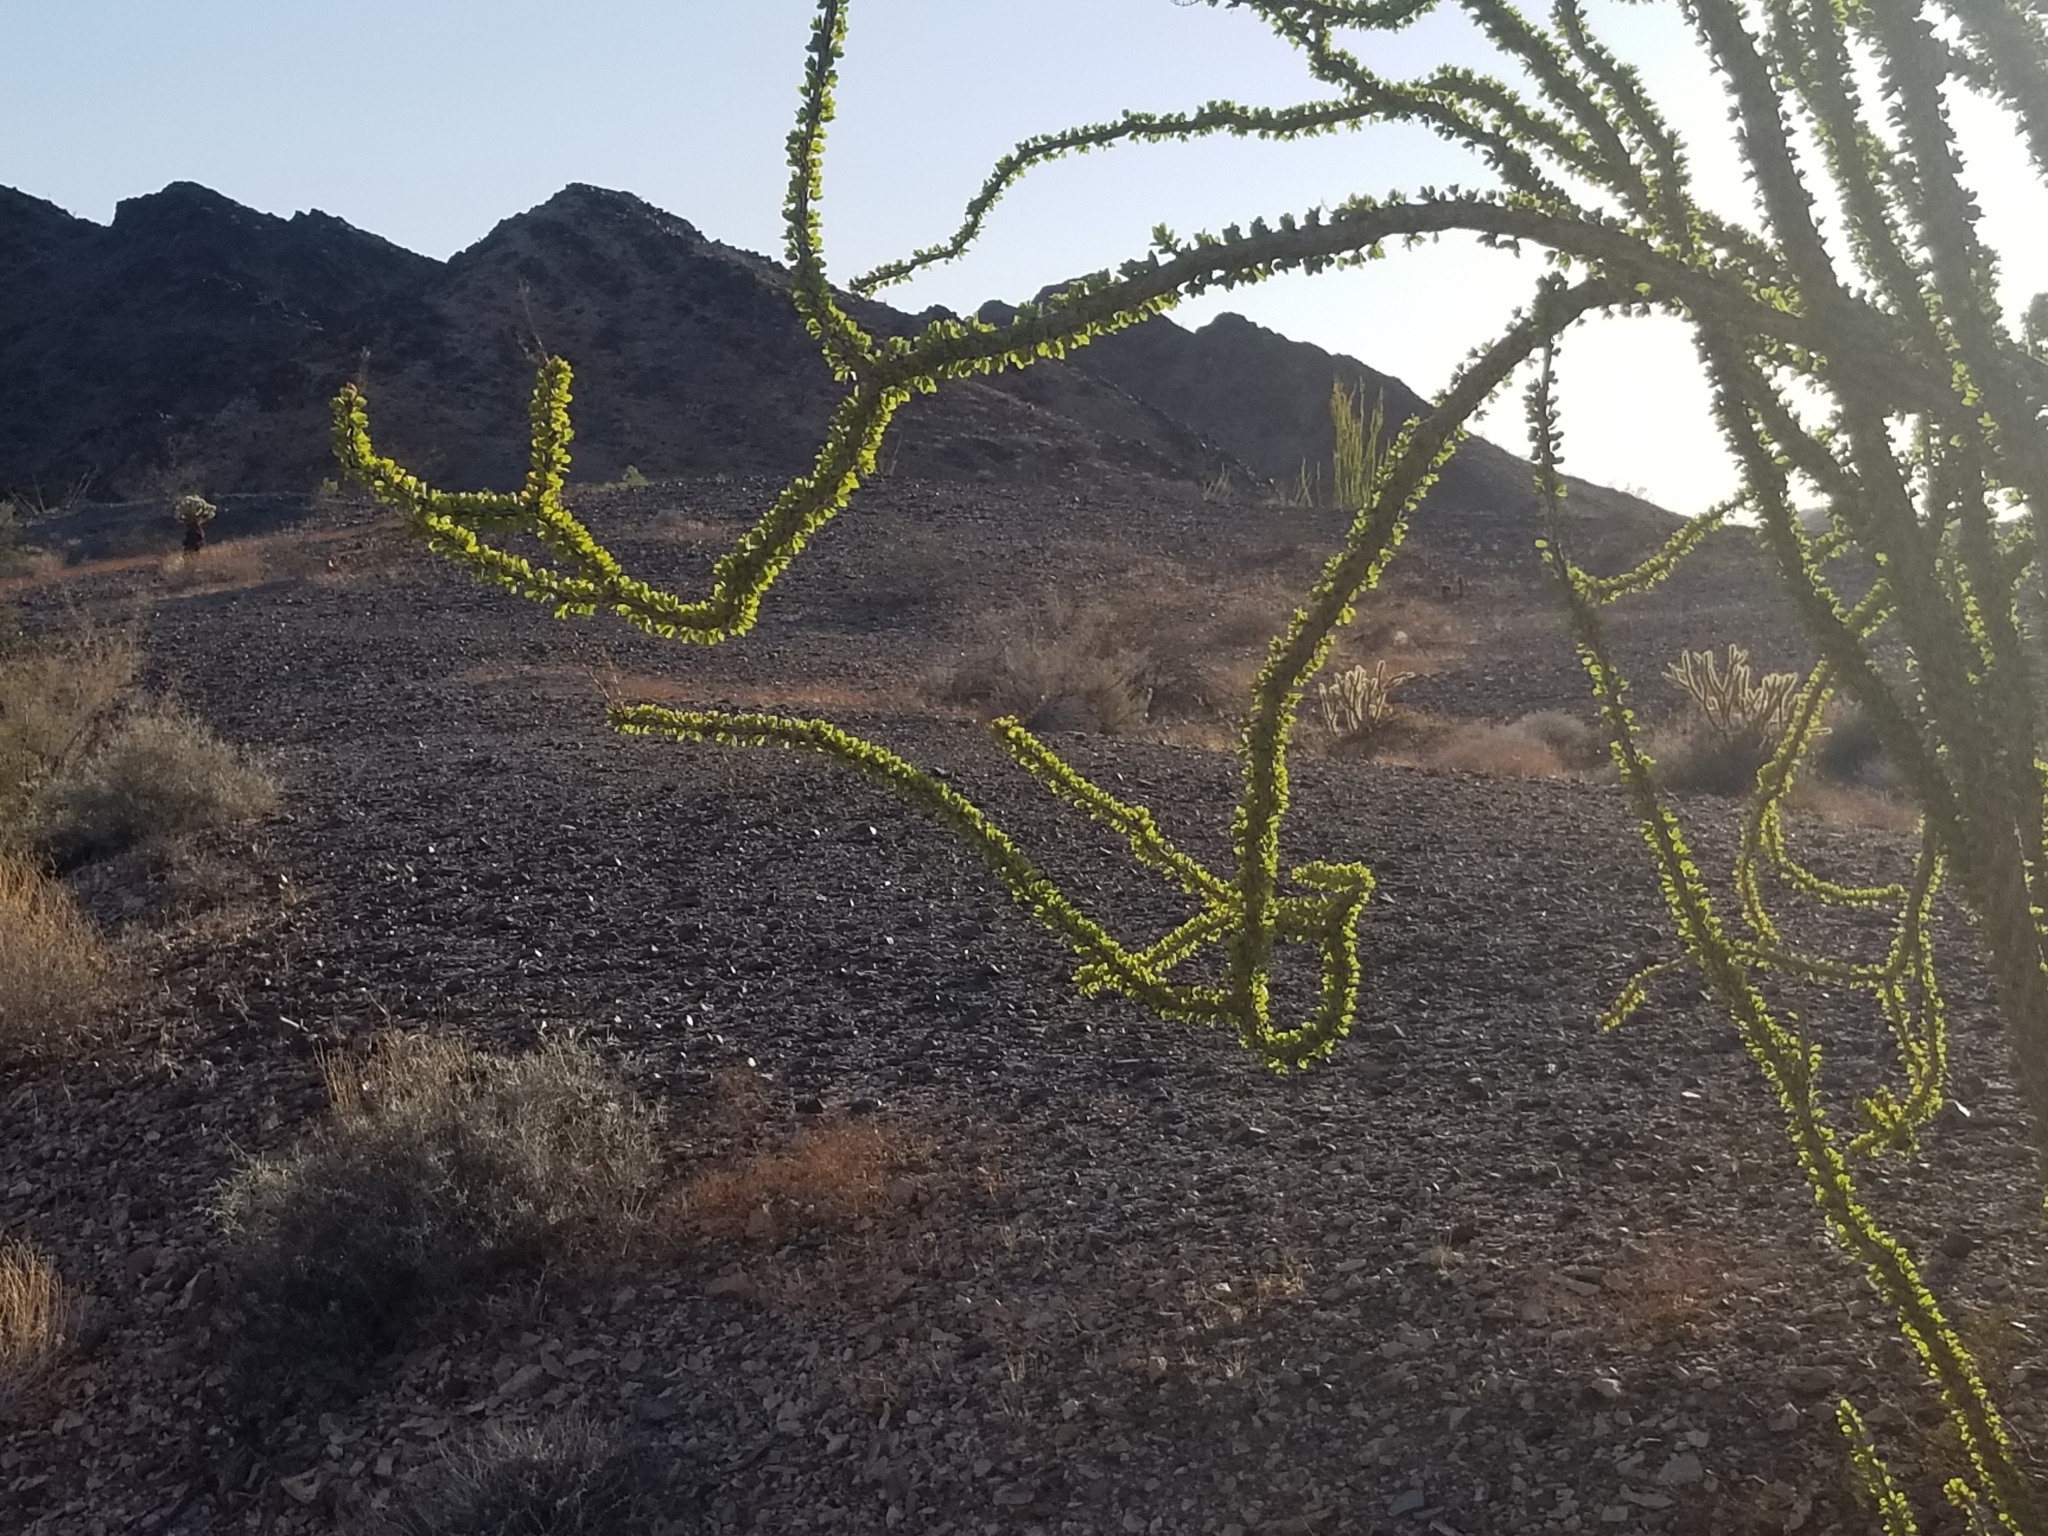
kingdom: Plantae
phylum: Tracheophyta
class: Magnoliopsida
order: Ericales
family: Fouquieriaceae
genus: Fouquieria
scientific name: Fouquieria splendens
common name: Vine-cactus
